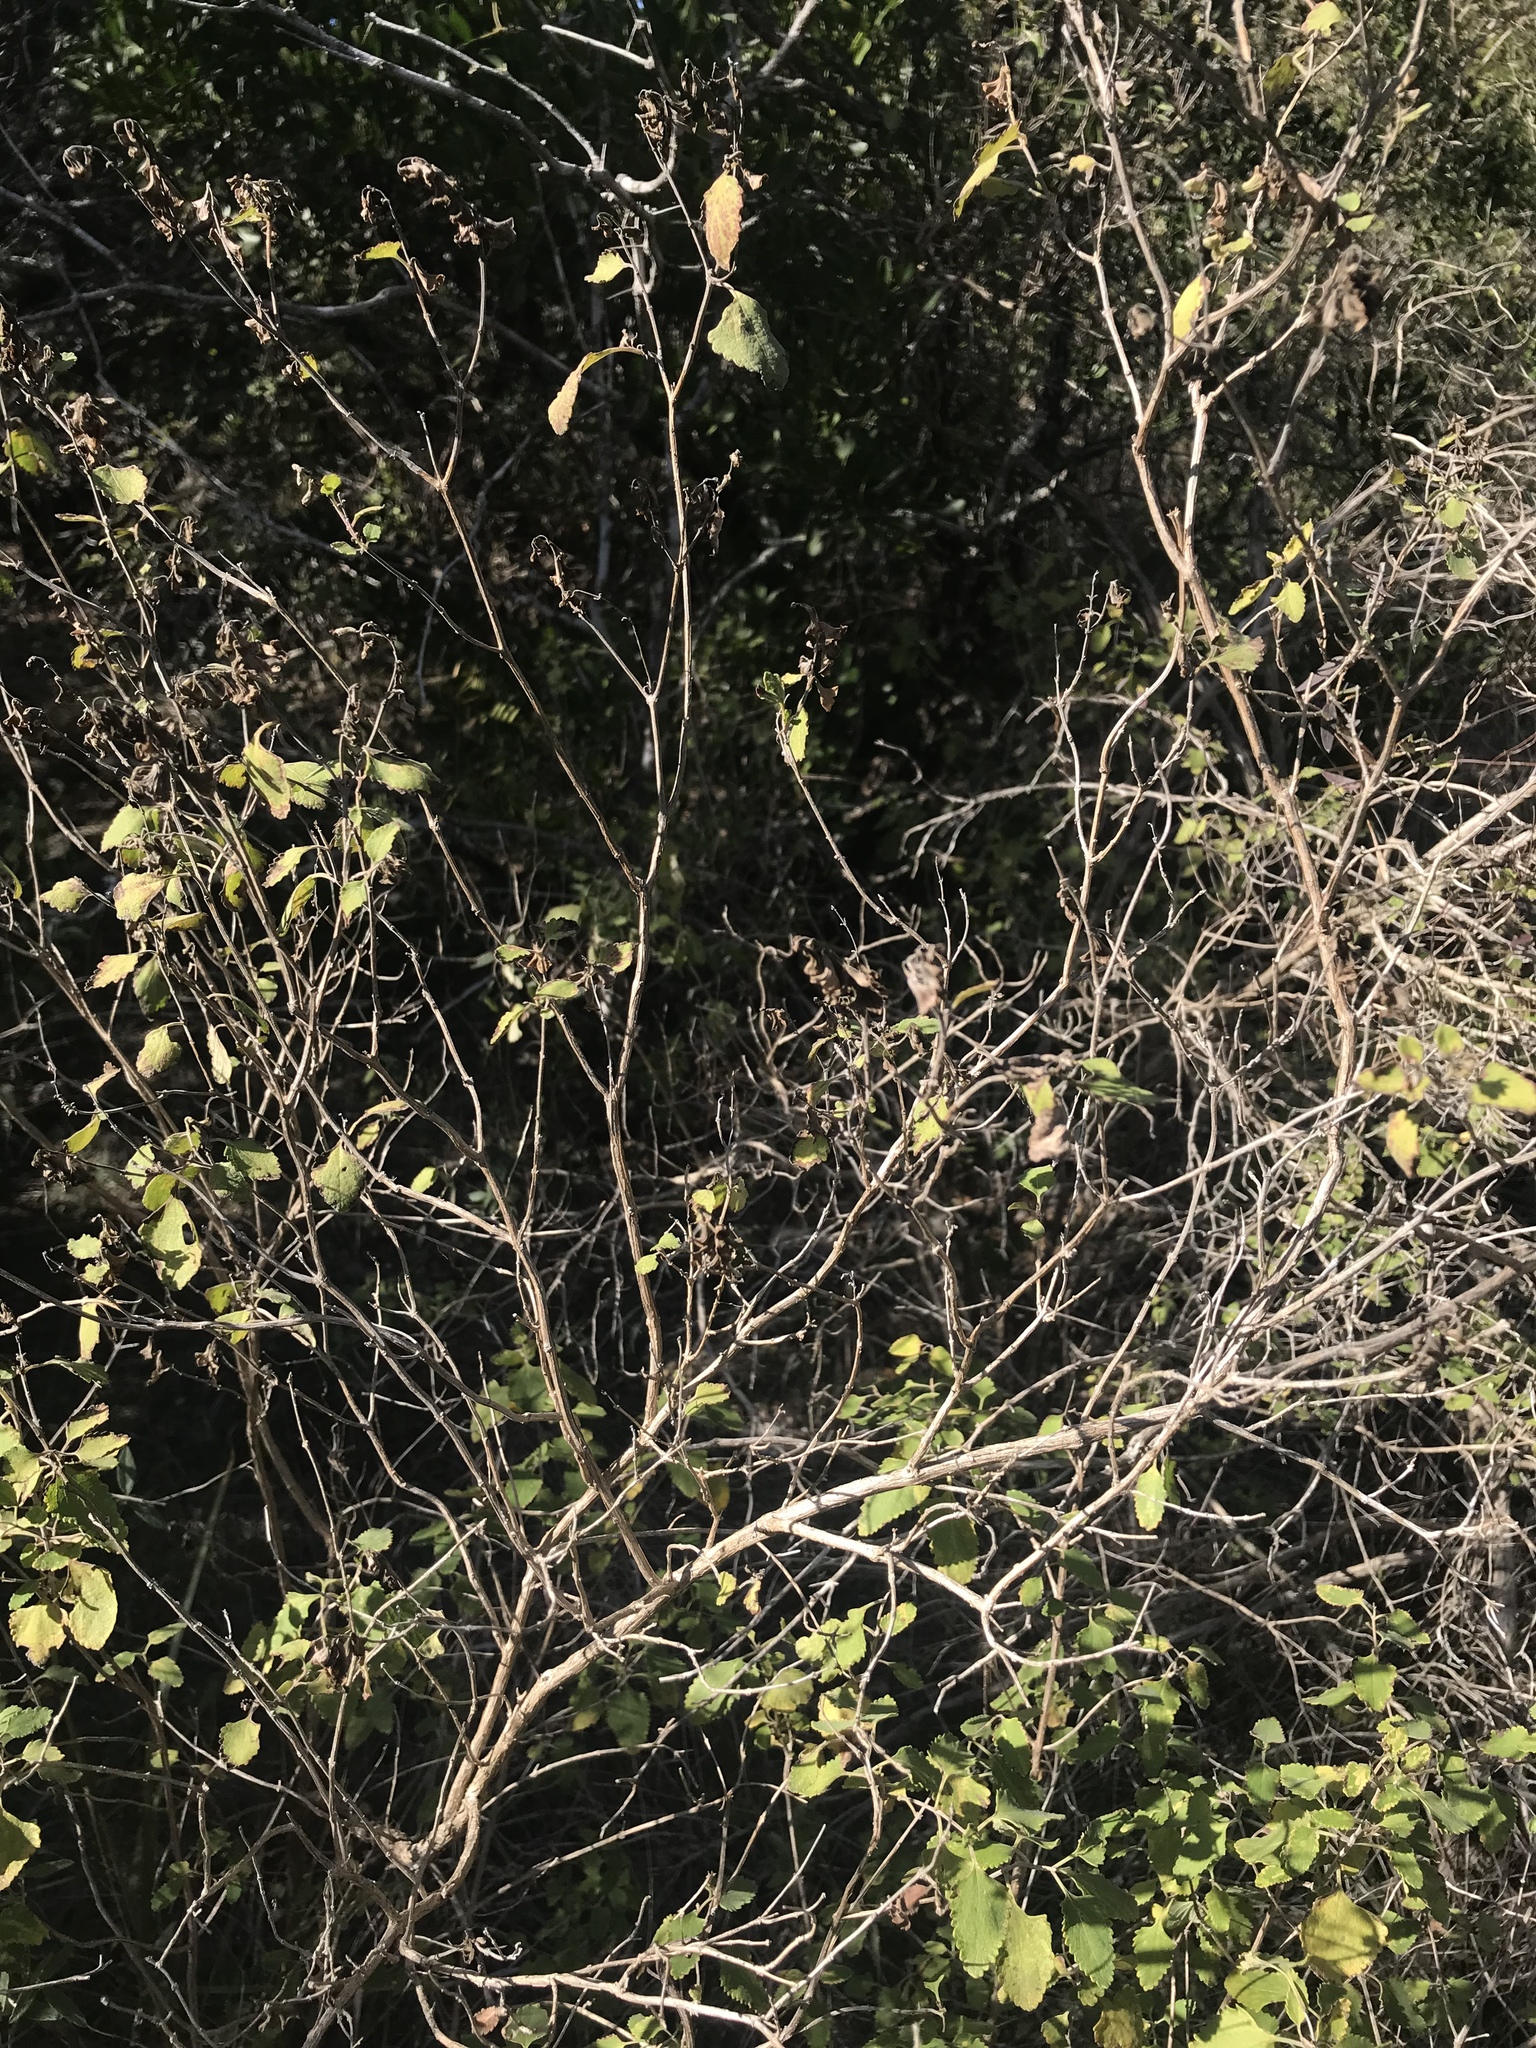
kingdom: Plantae
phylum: Tracheophyta
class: Magnoliopsida
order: Lamiales
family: Lamiaceae
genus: Salvia
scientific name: Salvia ballotiflora
